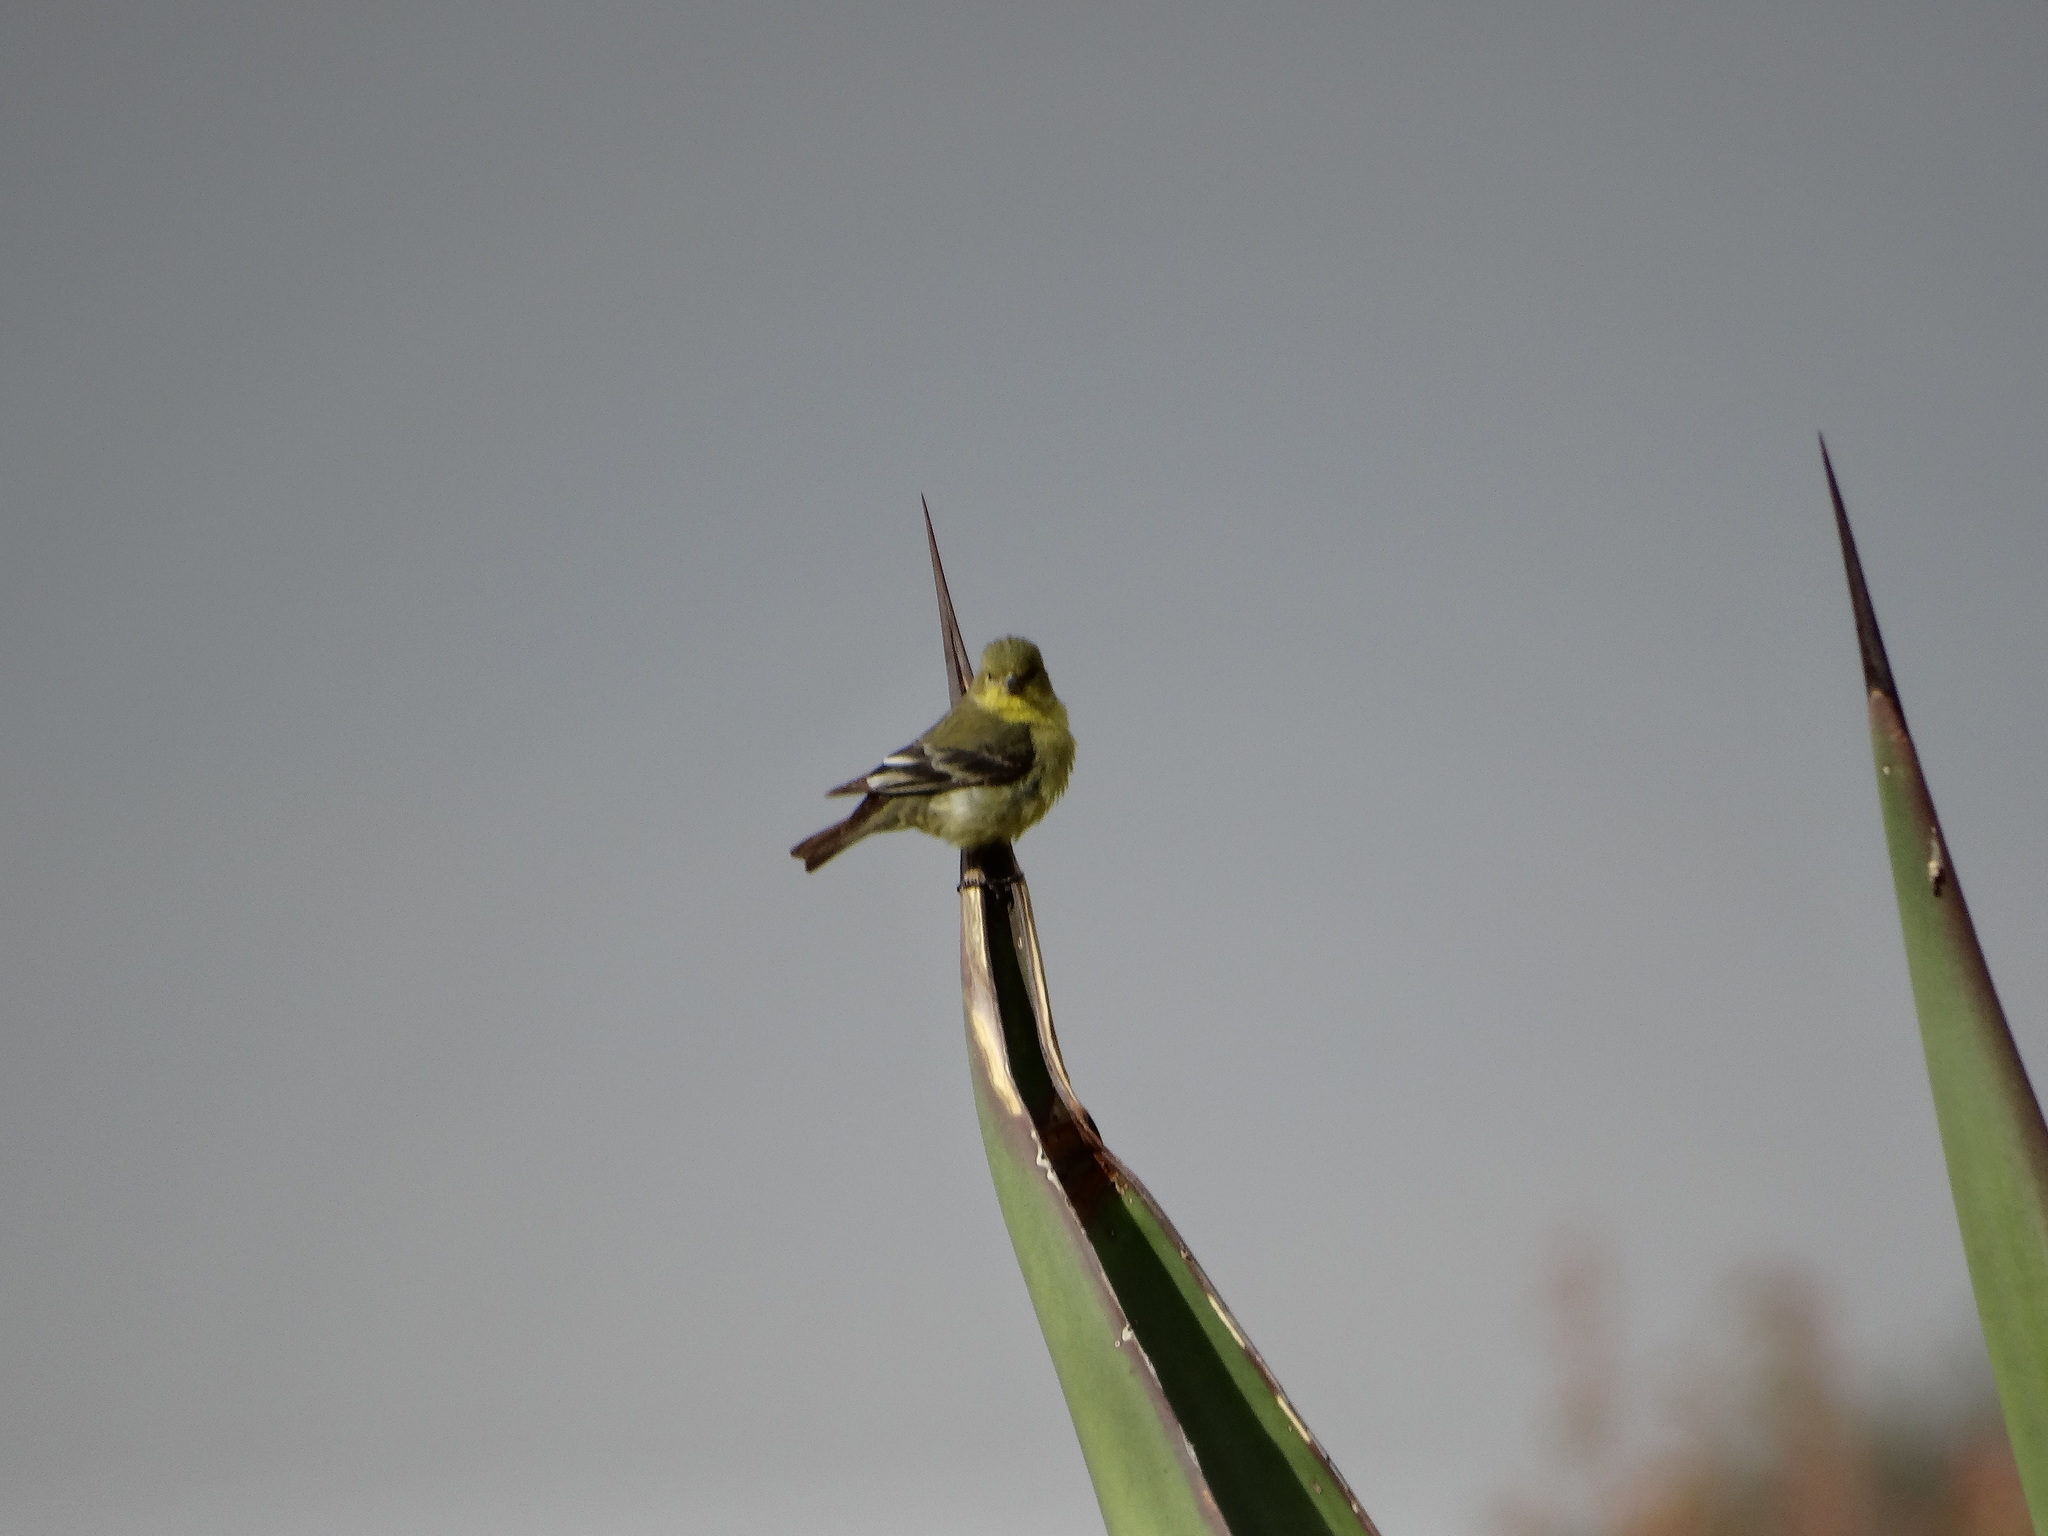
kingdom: Animalia
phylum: Chordata
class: Aves
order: Passeriformes
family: Fringillidae
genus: Spinus
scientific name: Spinus psaltria
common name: Lesser goldfinch
